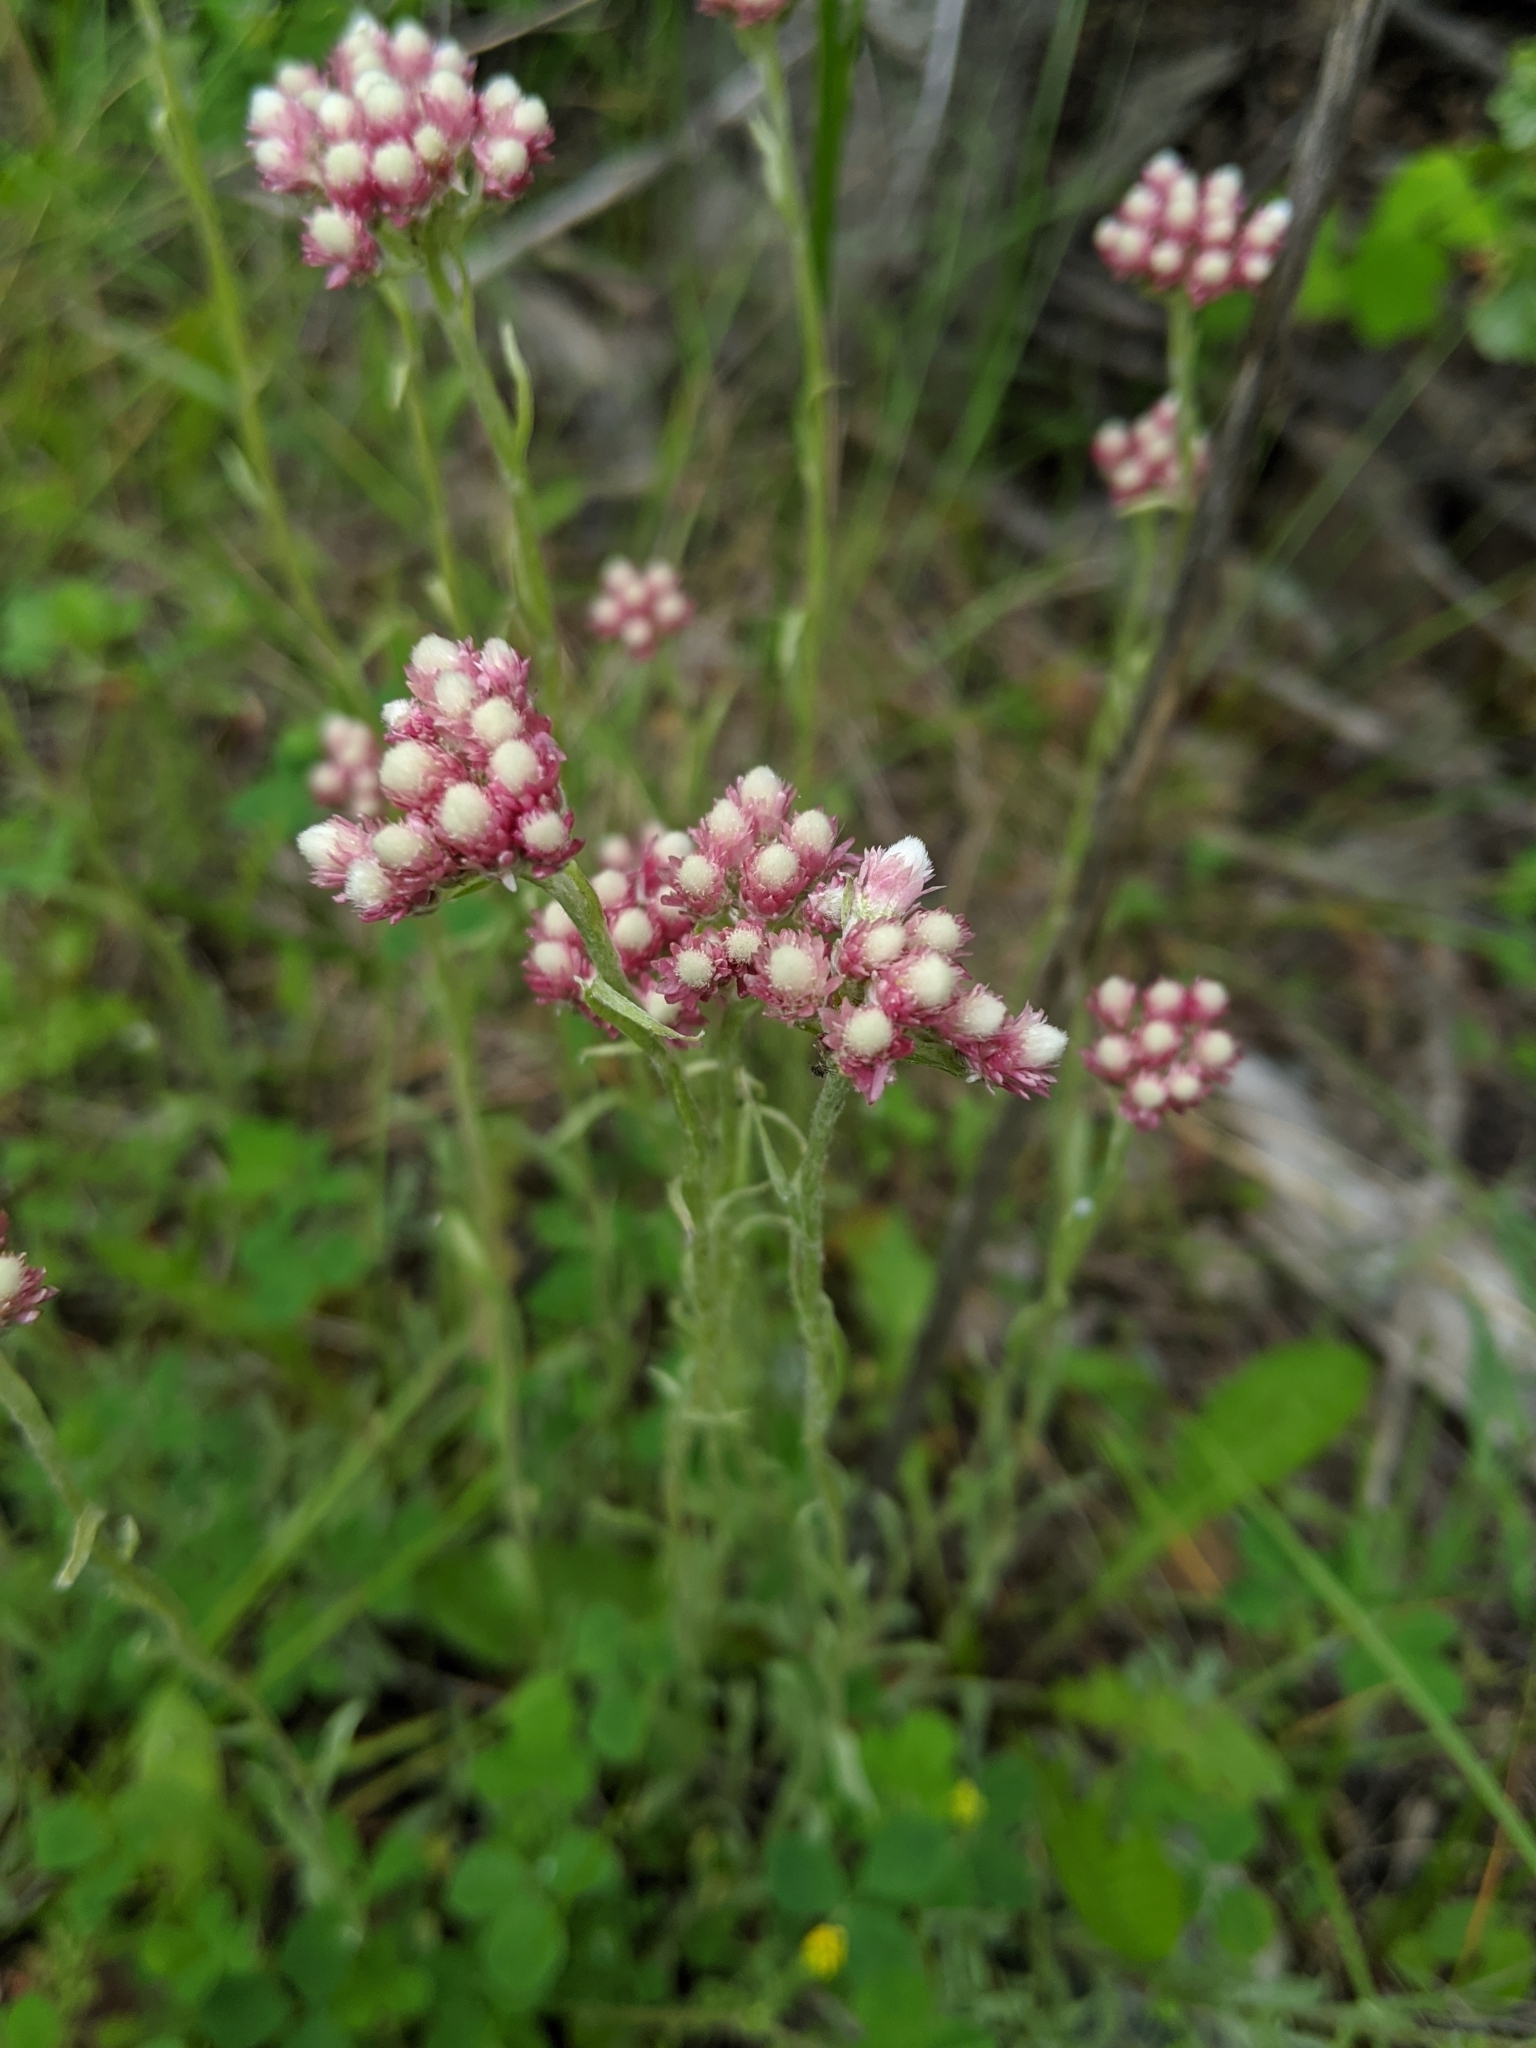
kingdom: Plantae
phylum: Tracheophyta
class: Magnoliopsida
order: Asterales
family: Asteraceae
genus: Antennaria
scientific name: Antennaria rosea
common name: Rosy pussytoes
